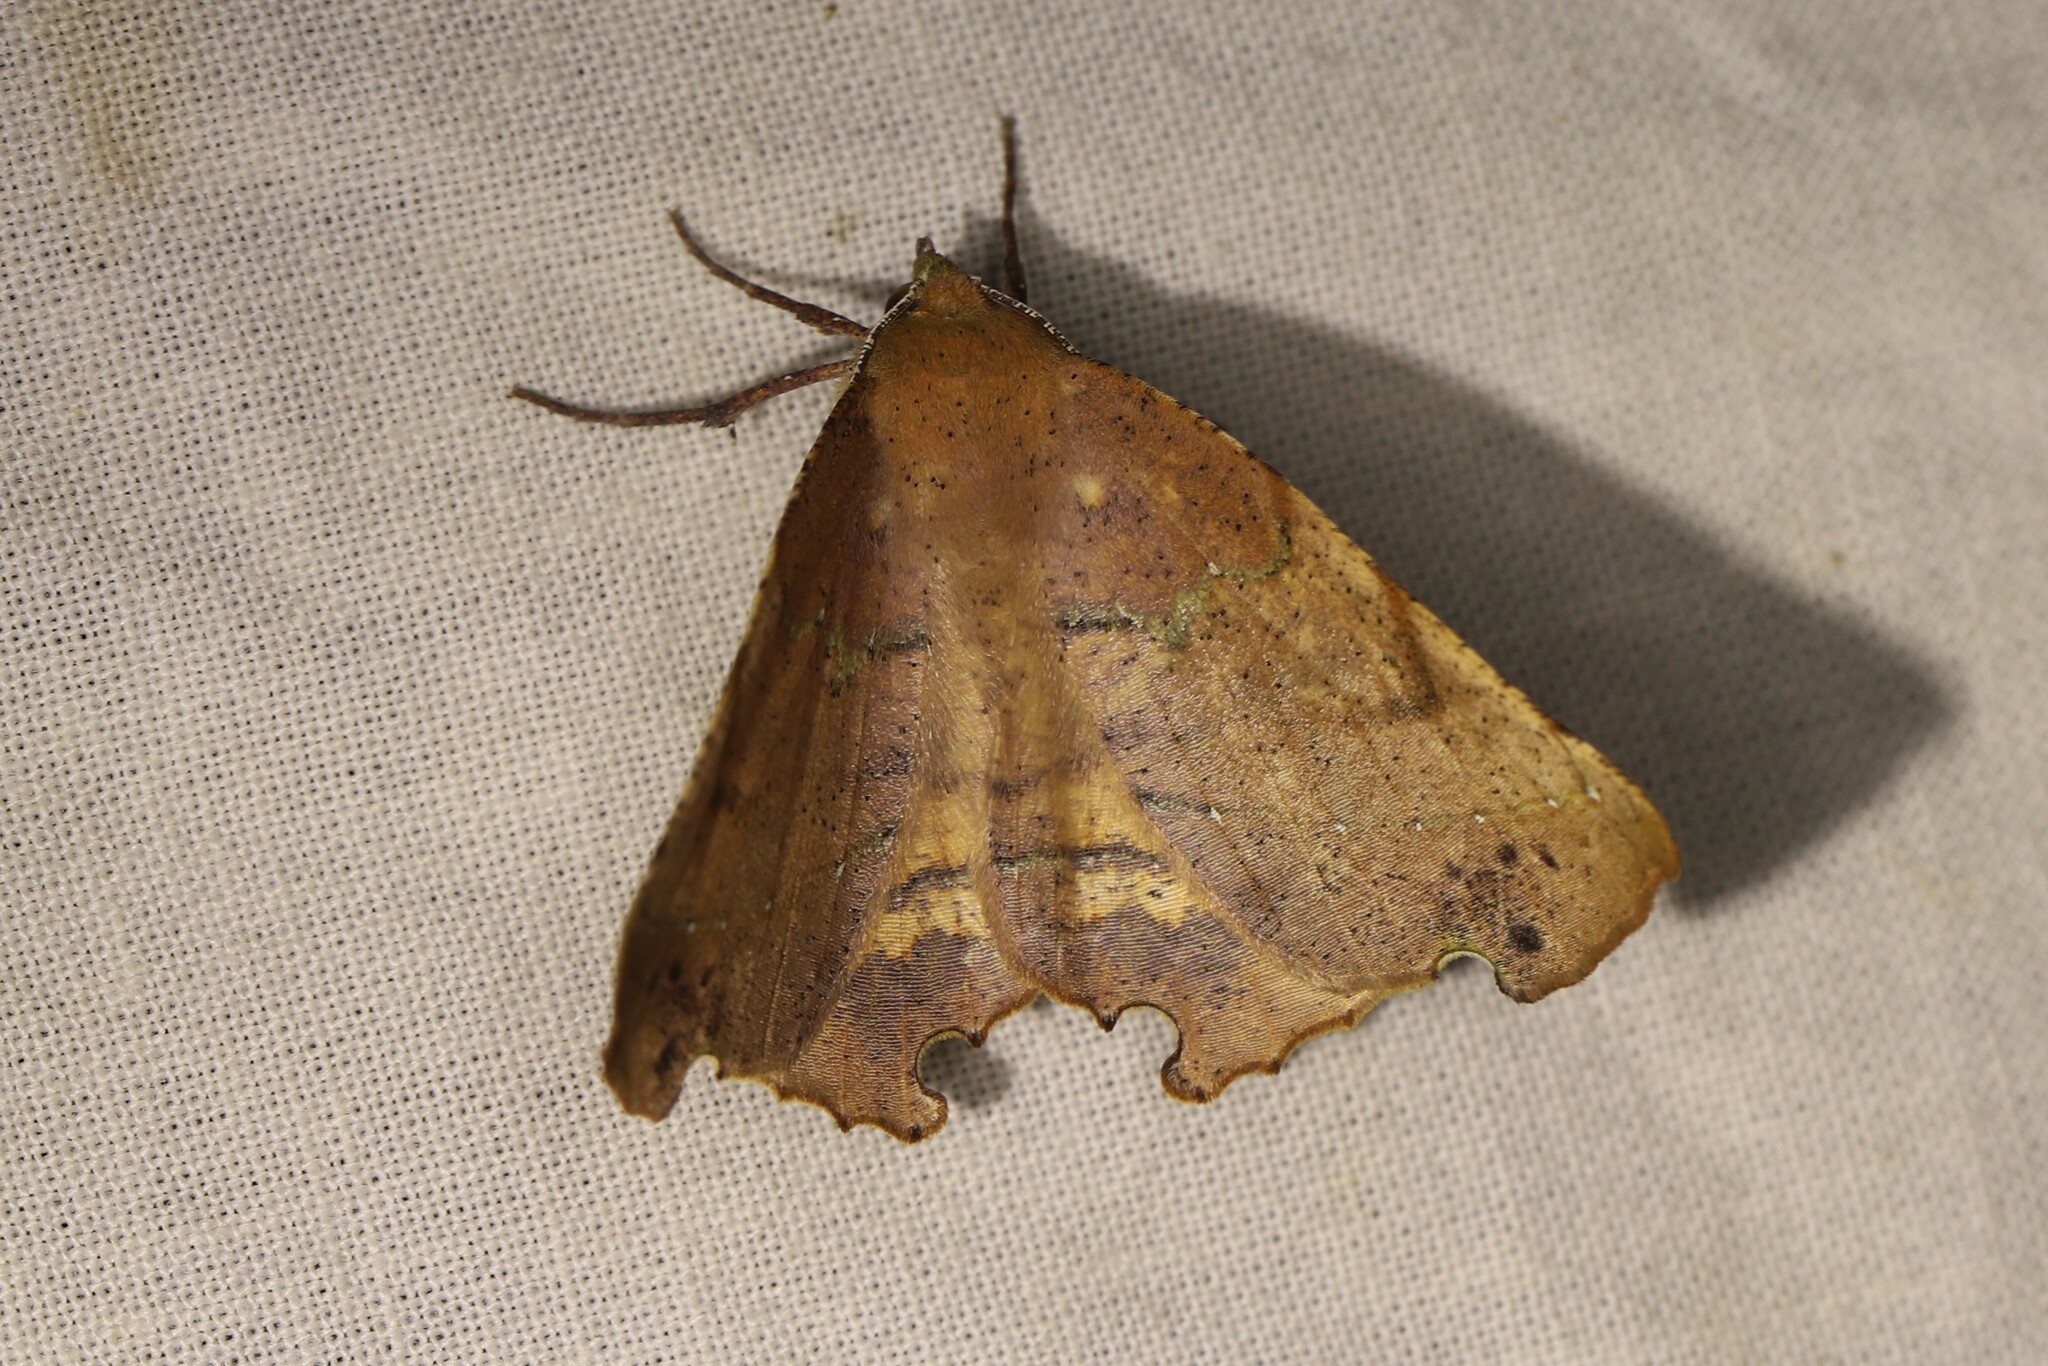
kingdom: Animalia
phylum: Arthropoda
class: Insecta
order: Lepidoptera
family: Geometridae
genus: Phyllodonta
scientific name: Phyllodonta flabellaria
